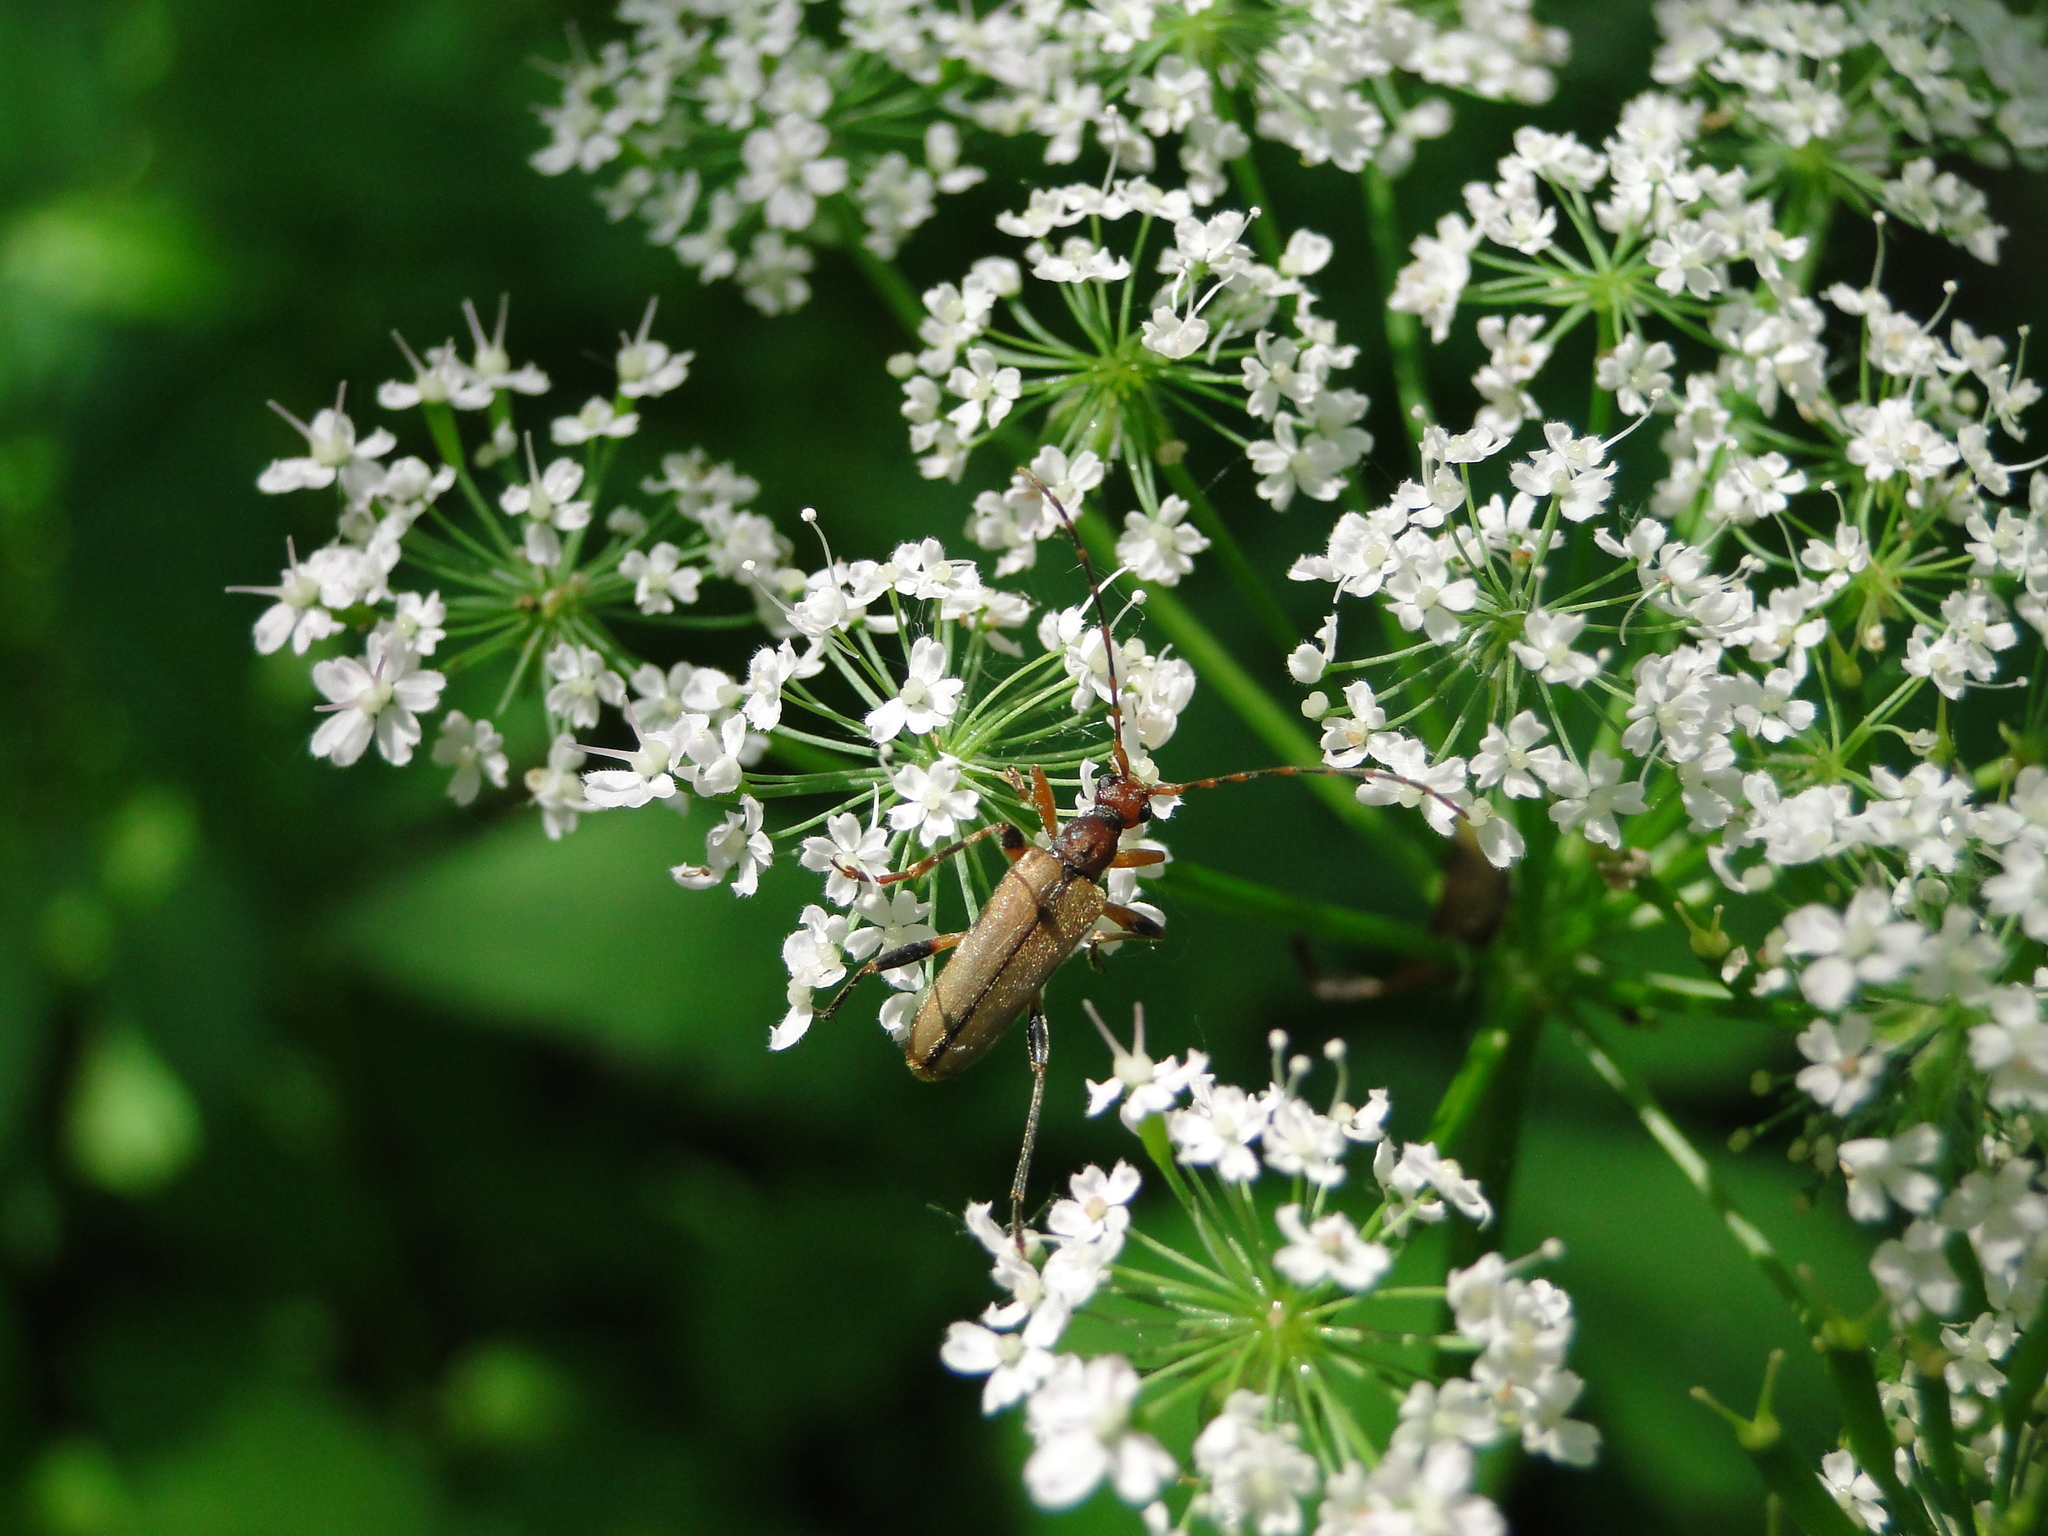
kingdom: Animalia
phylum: Arthropoda
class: Insecta
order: Coleoptera
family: Cerambycidae
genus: Pidonia
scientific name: Pidonia lurida
